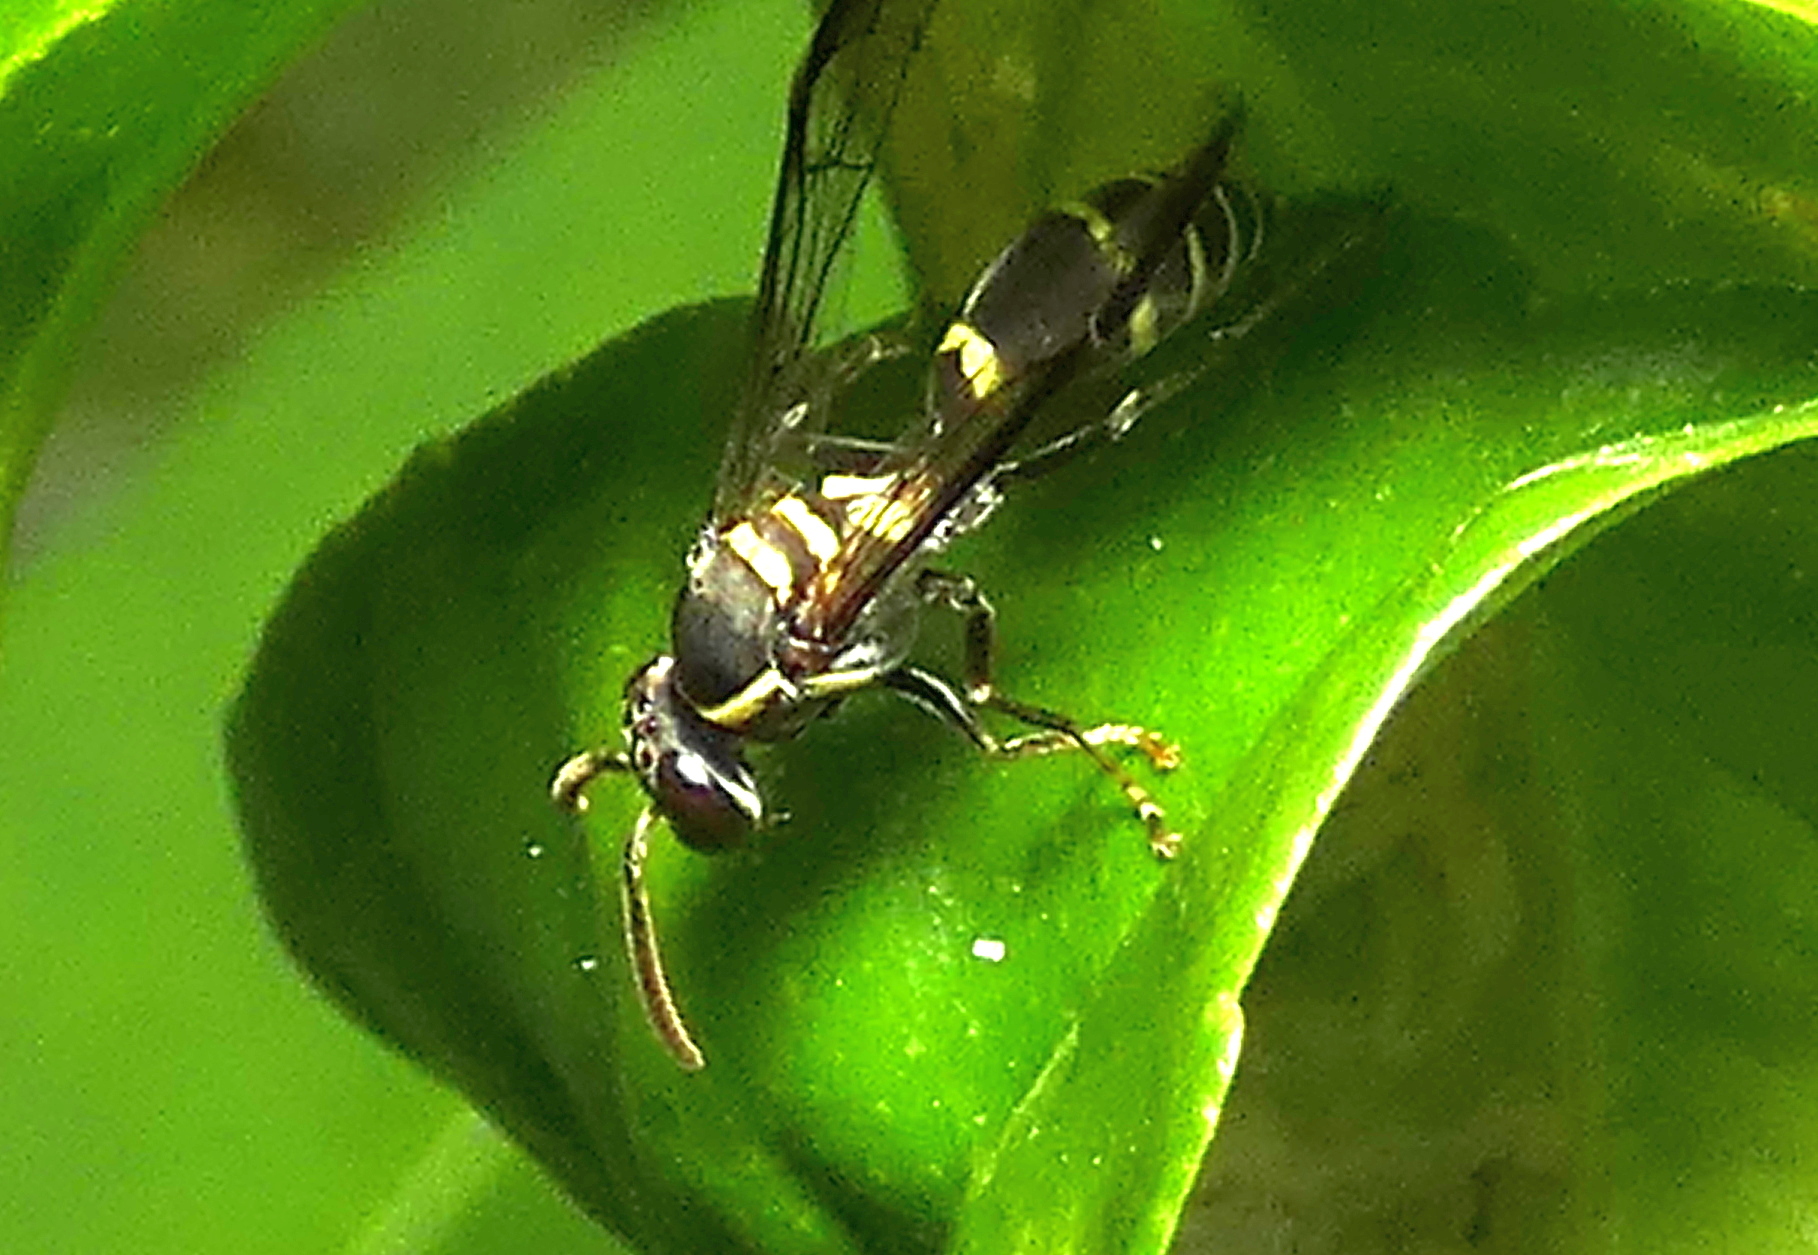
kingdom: Animalia
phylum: Arthropoda
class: Insecta
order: Hymenoptera
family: Eumenidae
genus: Polybia
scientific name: Polybia occidentalis
